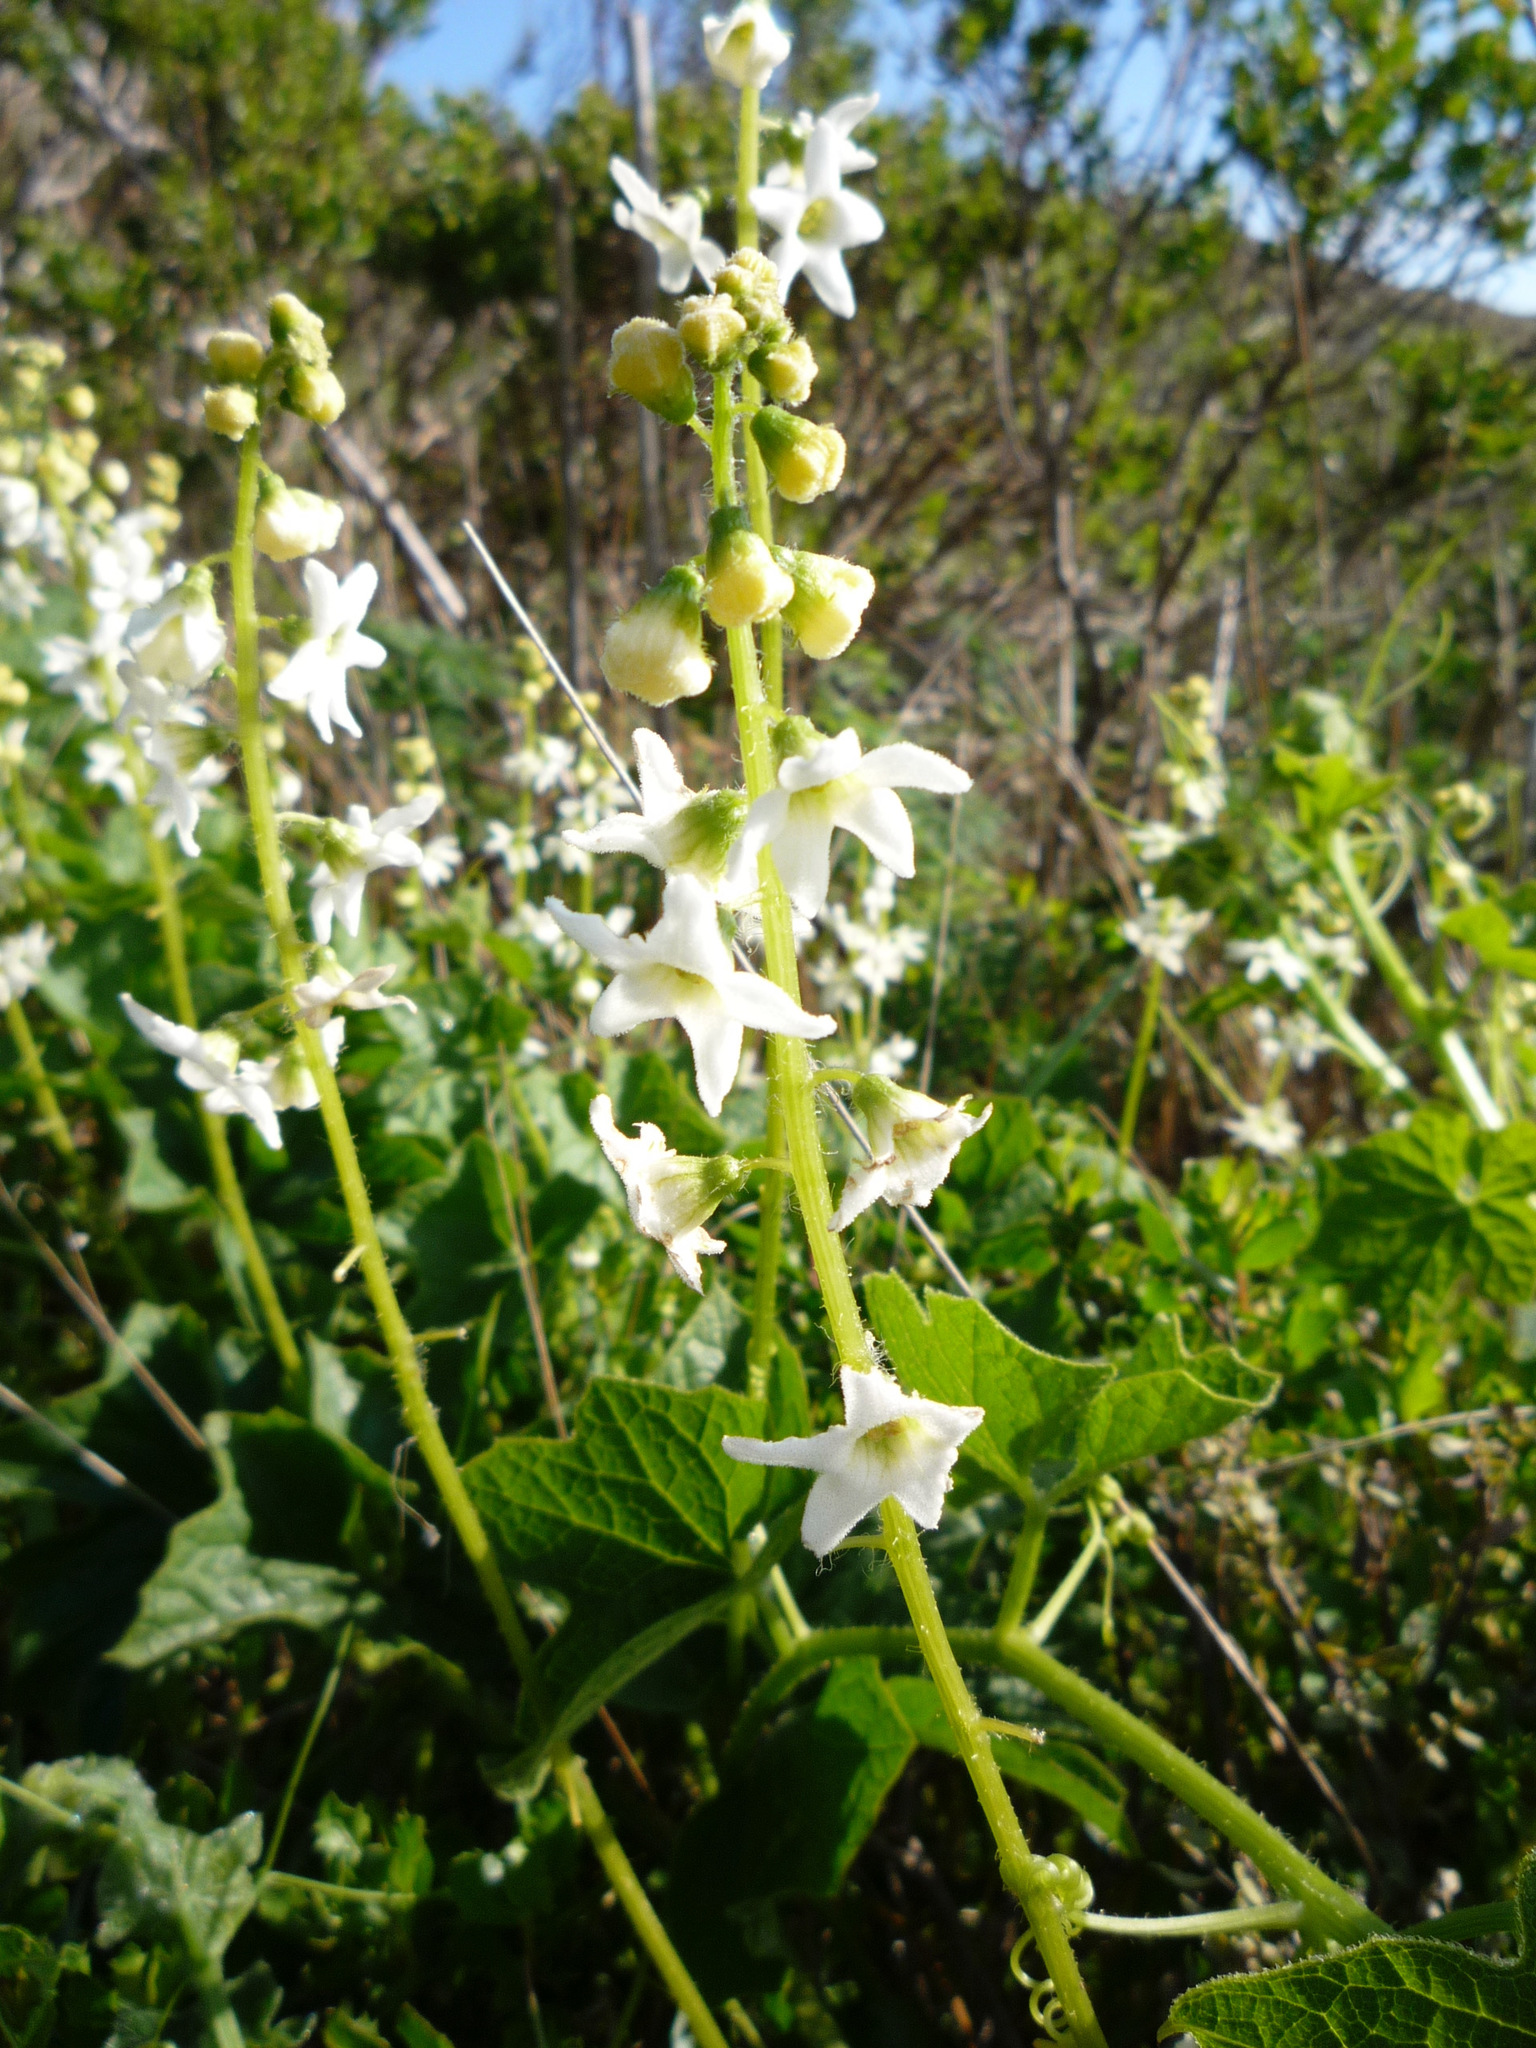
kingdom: Plantae
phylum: Tracheophyta
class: Magnoliopsida
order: Cucurbitales
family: Cucurbitaceae
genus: Marah
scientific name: Marah oregana
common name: Coastal manroot
